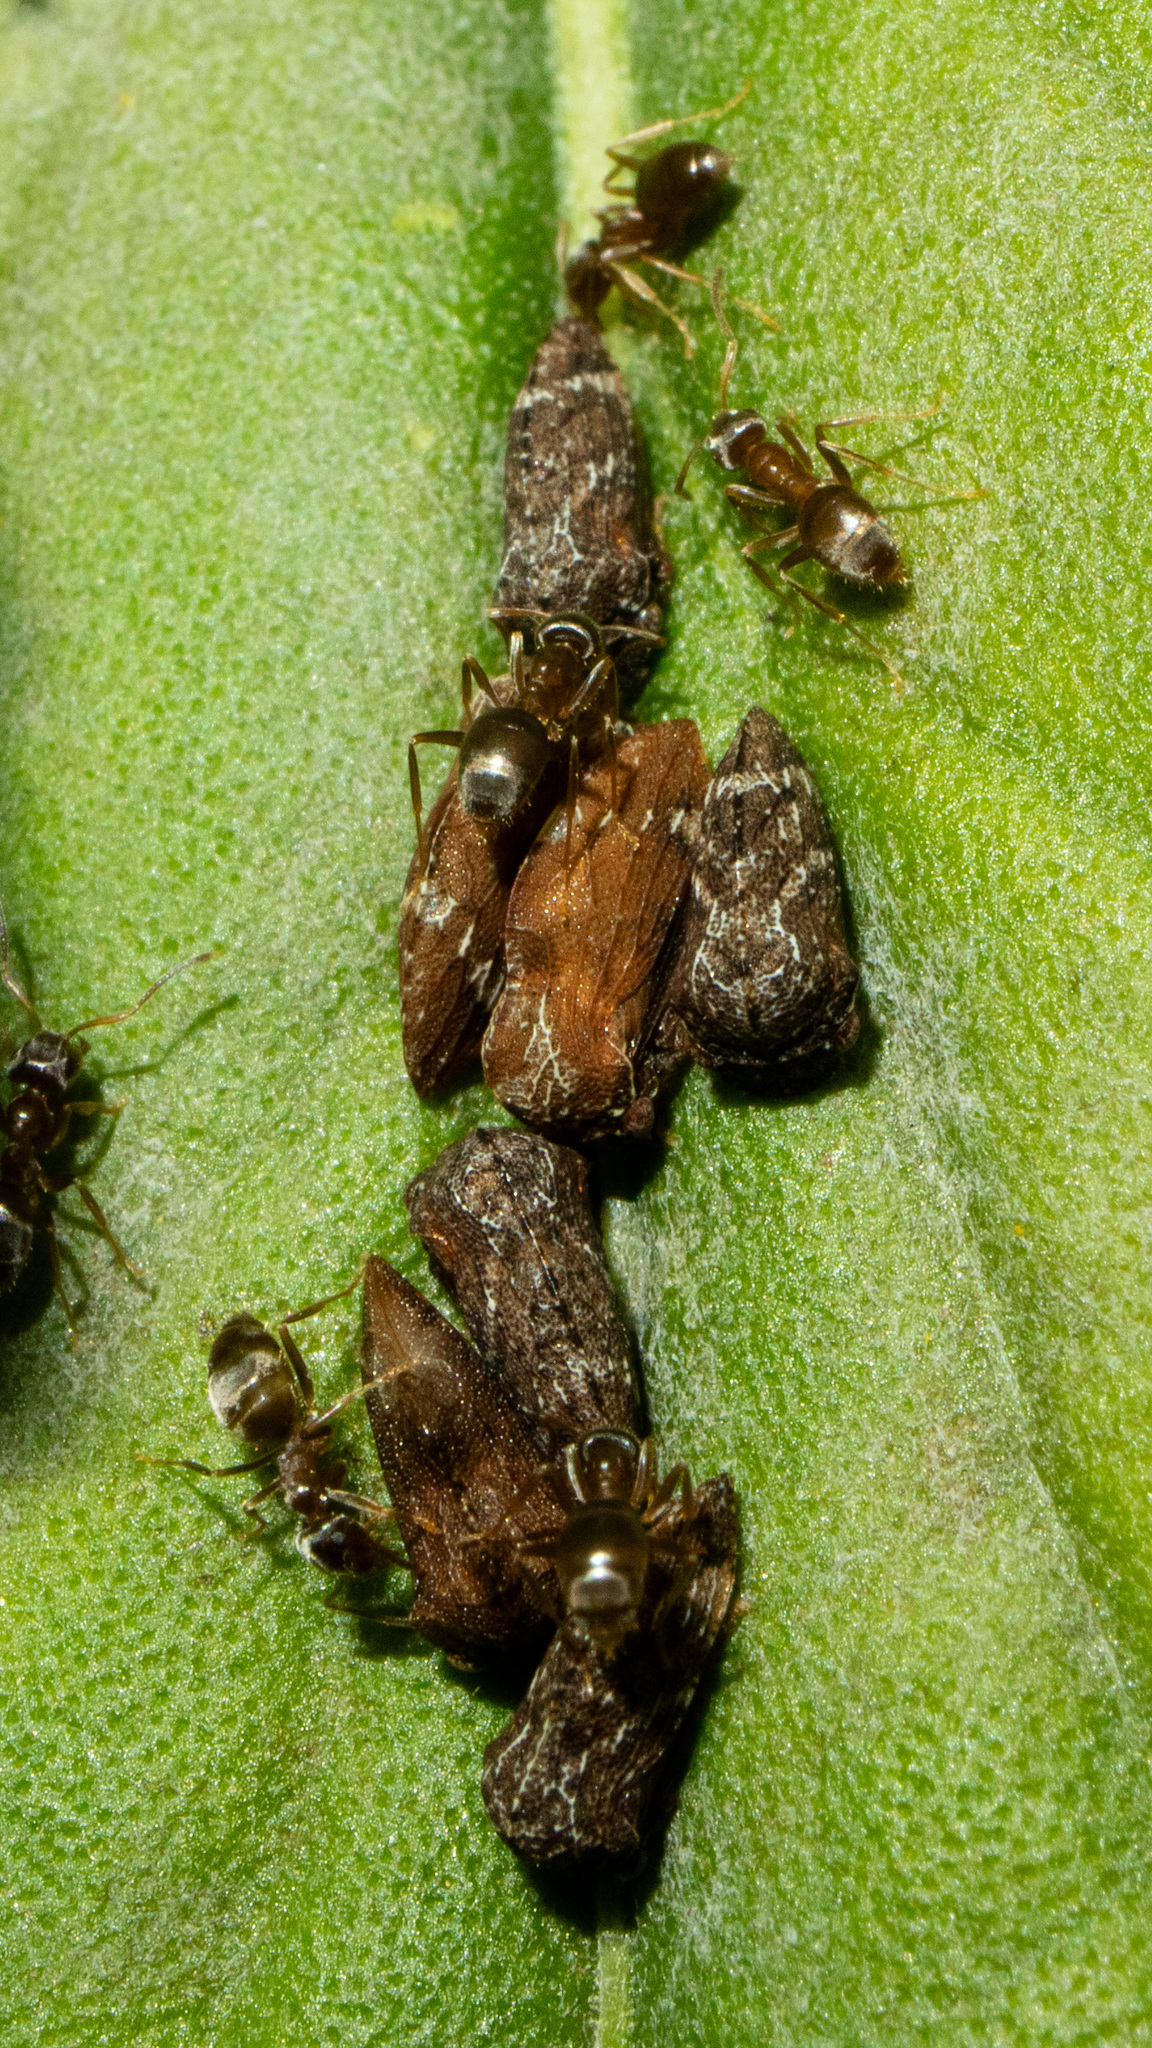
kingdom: Animalia
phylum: Arthropoda
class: Insecta
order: Hemiptera
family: Membracidae
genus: Publilia
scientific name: Publilia concava
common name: Aster treehopper
